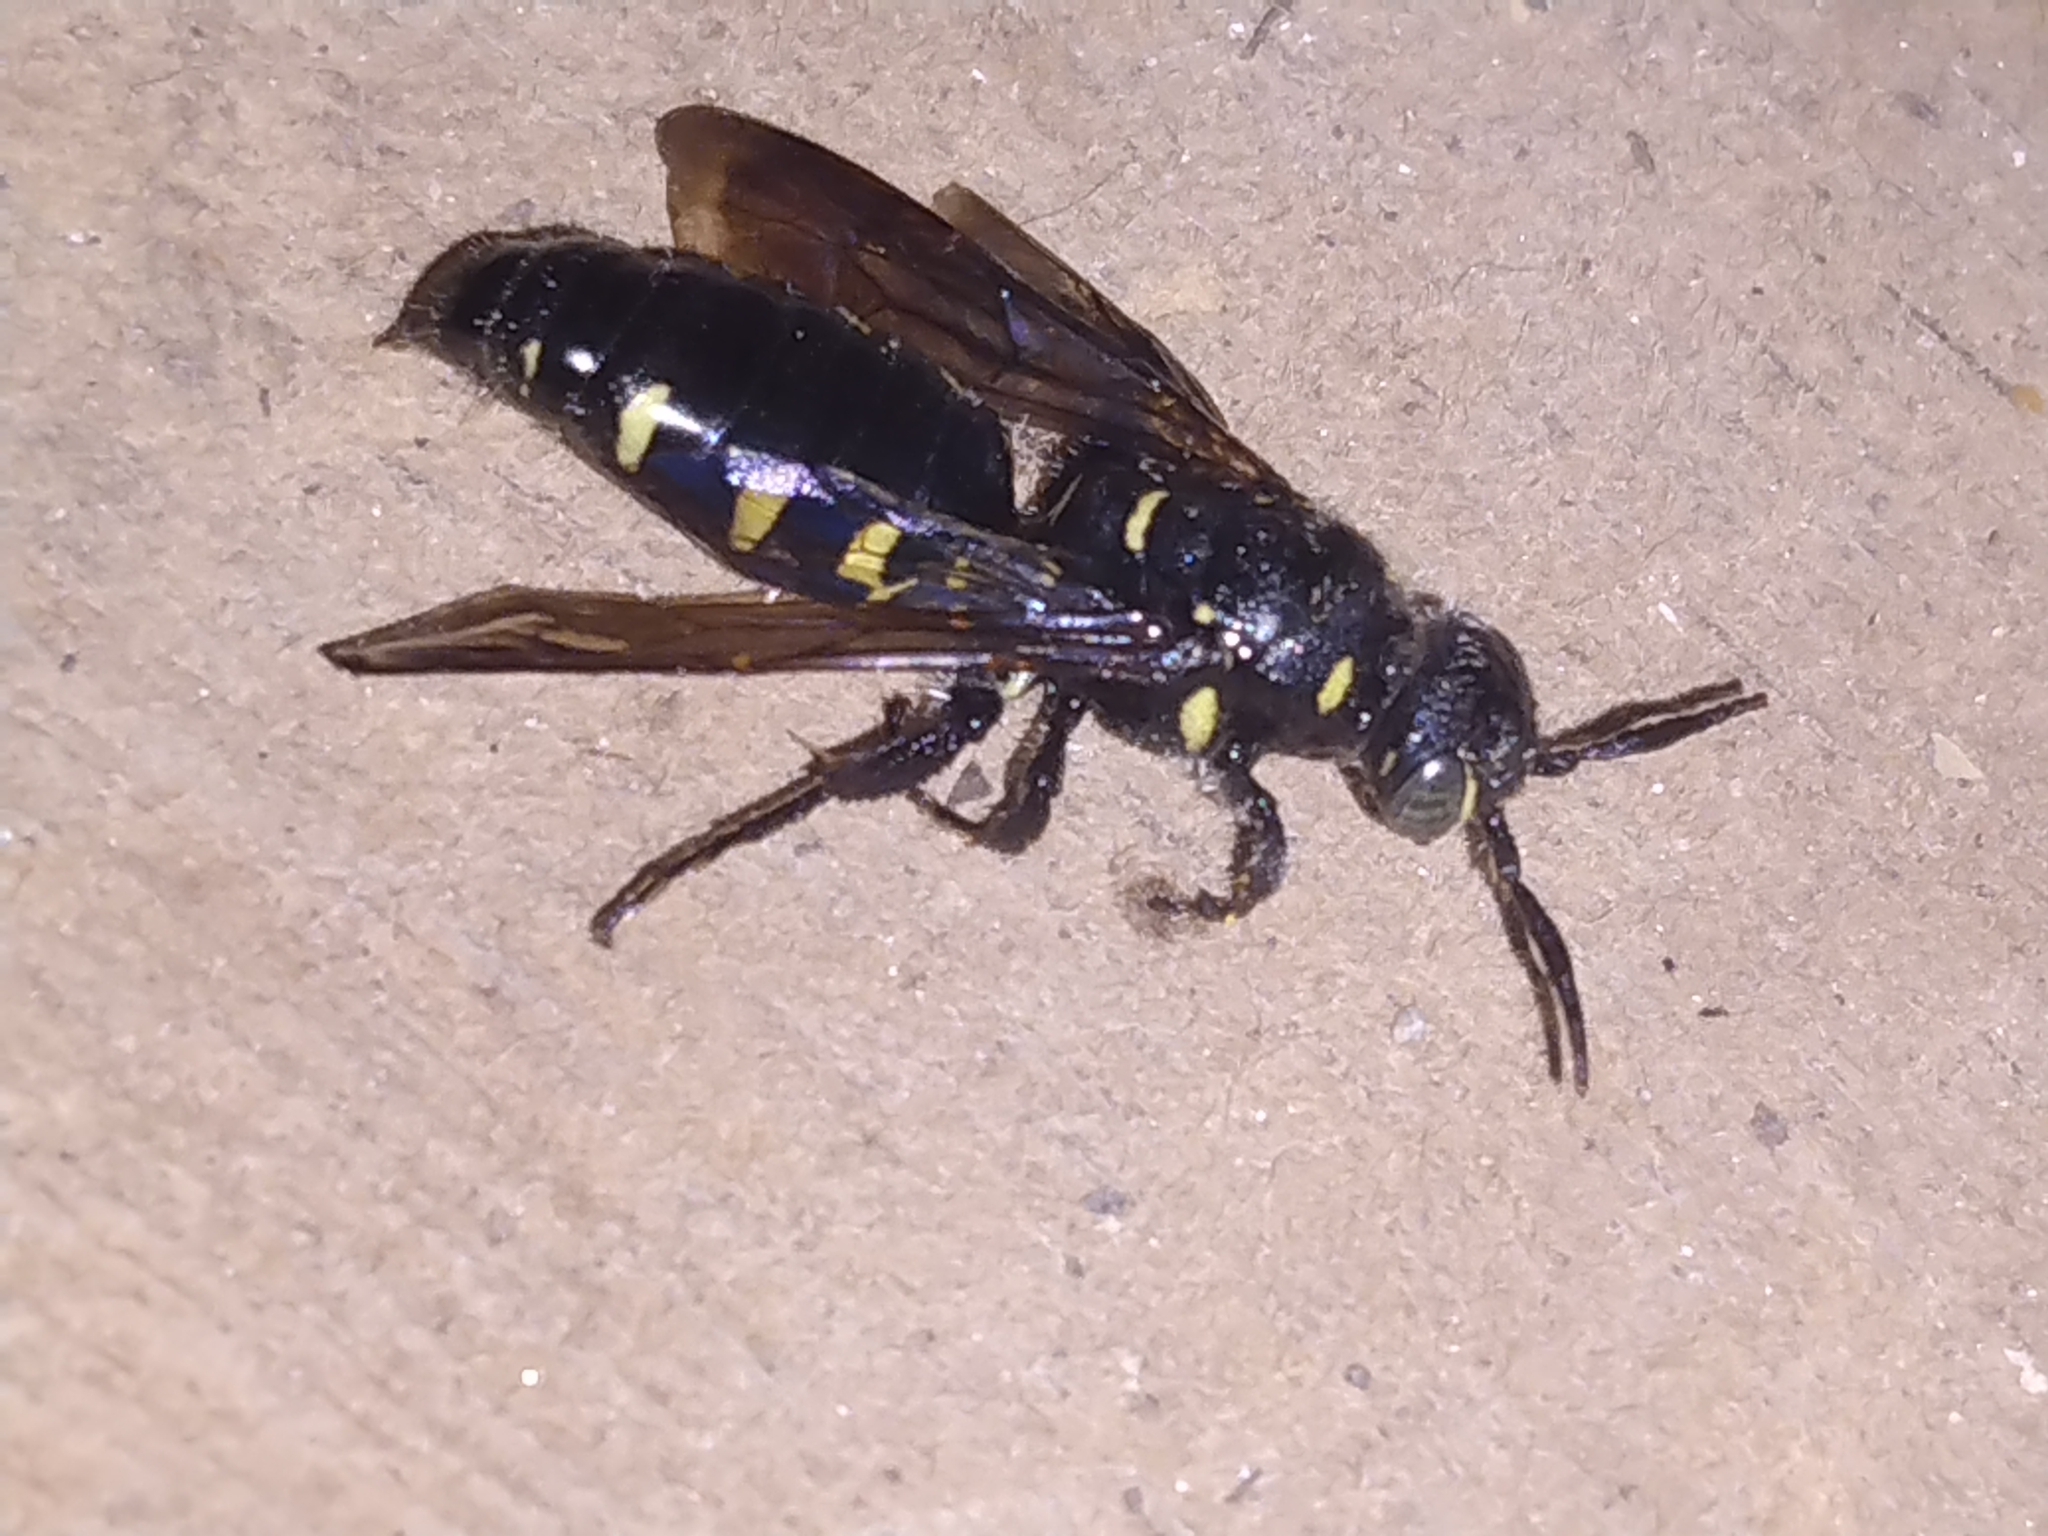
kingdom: Animalia
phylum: Arthropoda
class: Insecta
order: Hymenoptera
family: Tiphiidae
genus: Myzinum
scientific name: Myzinum obscurum
